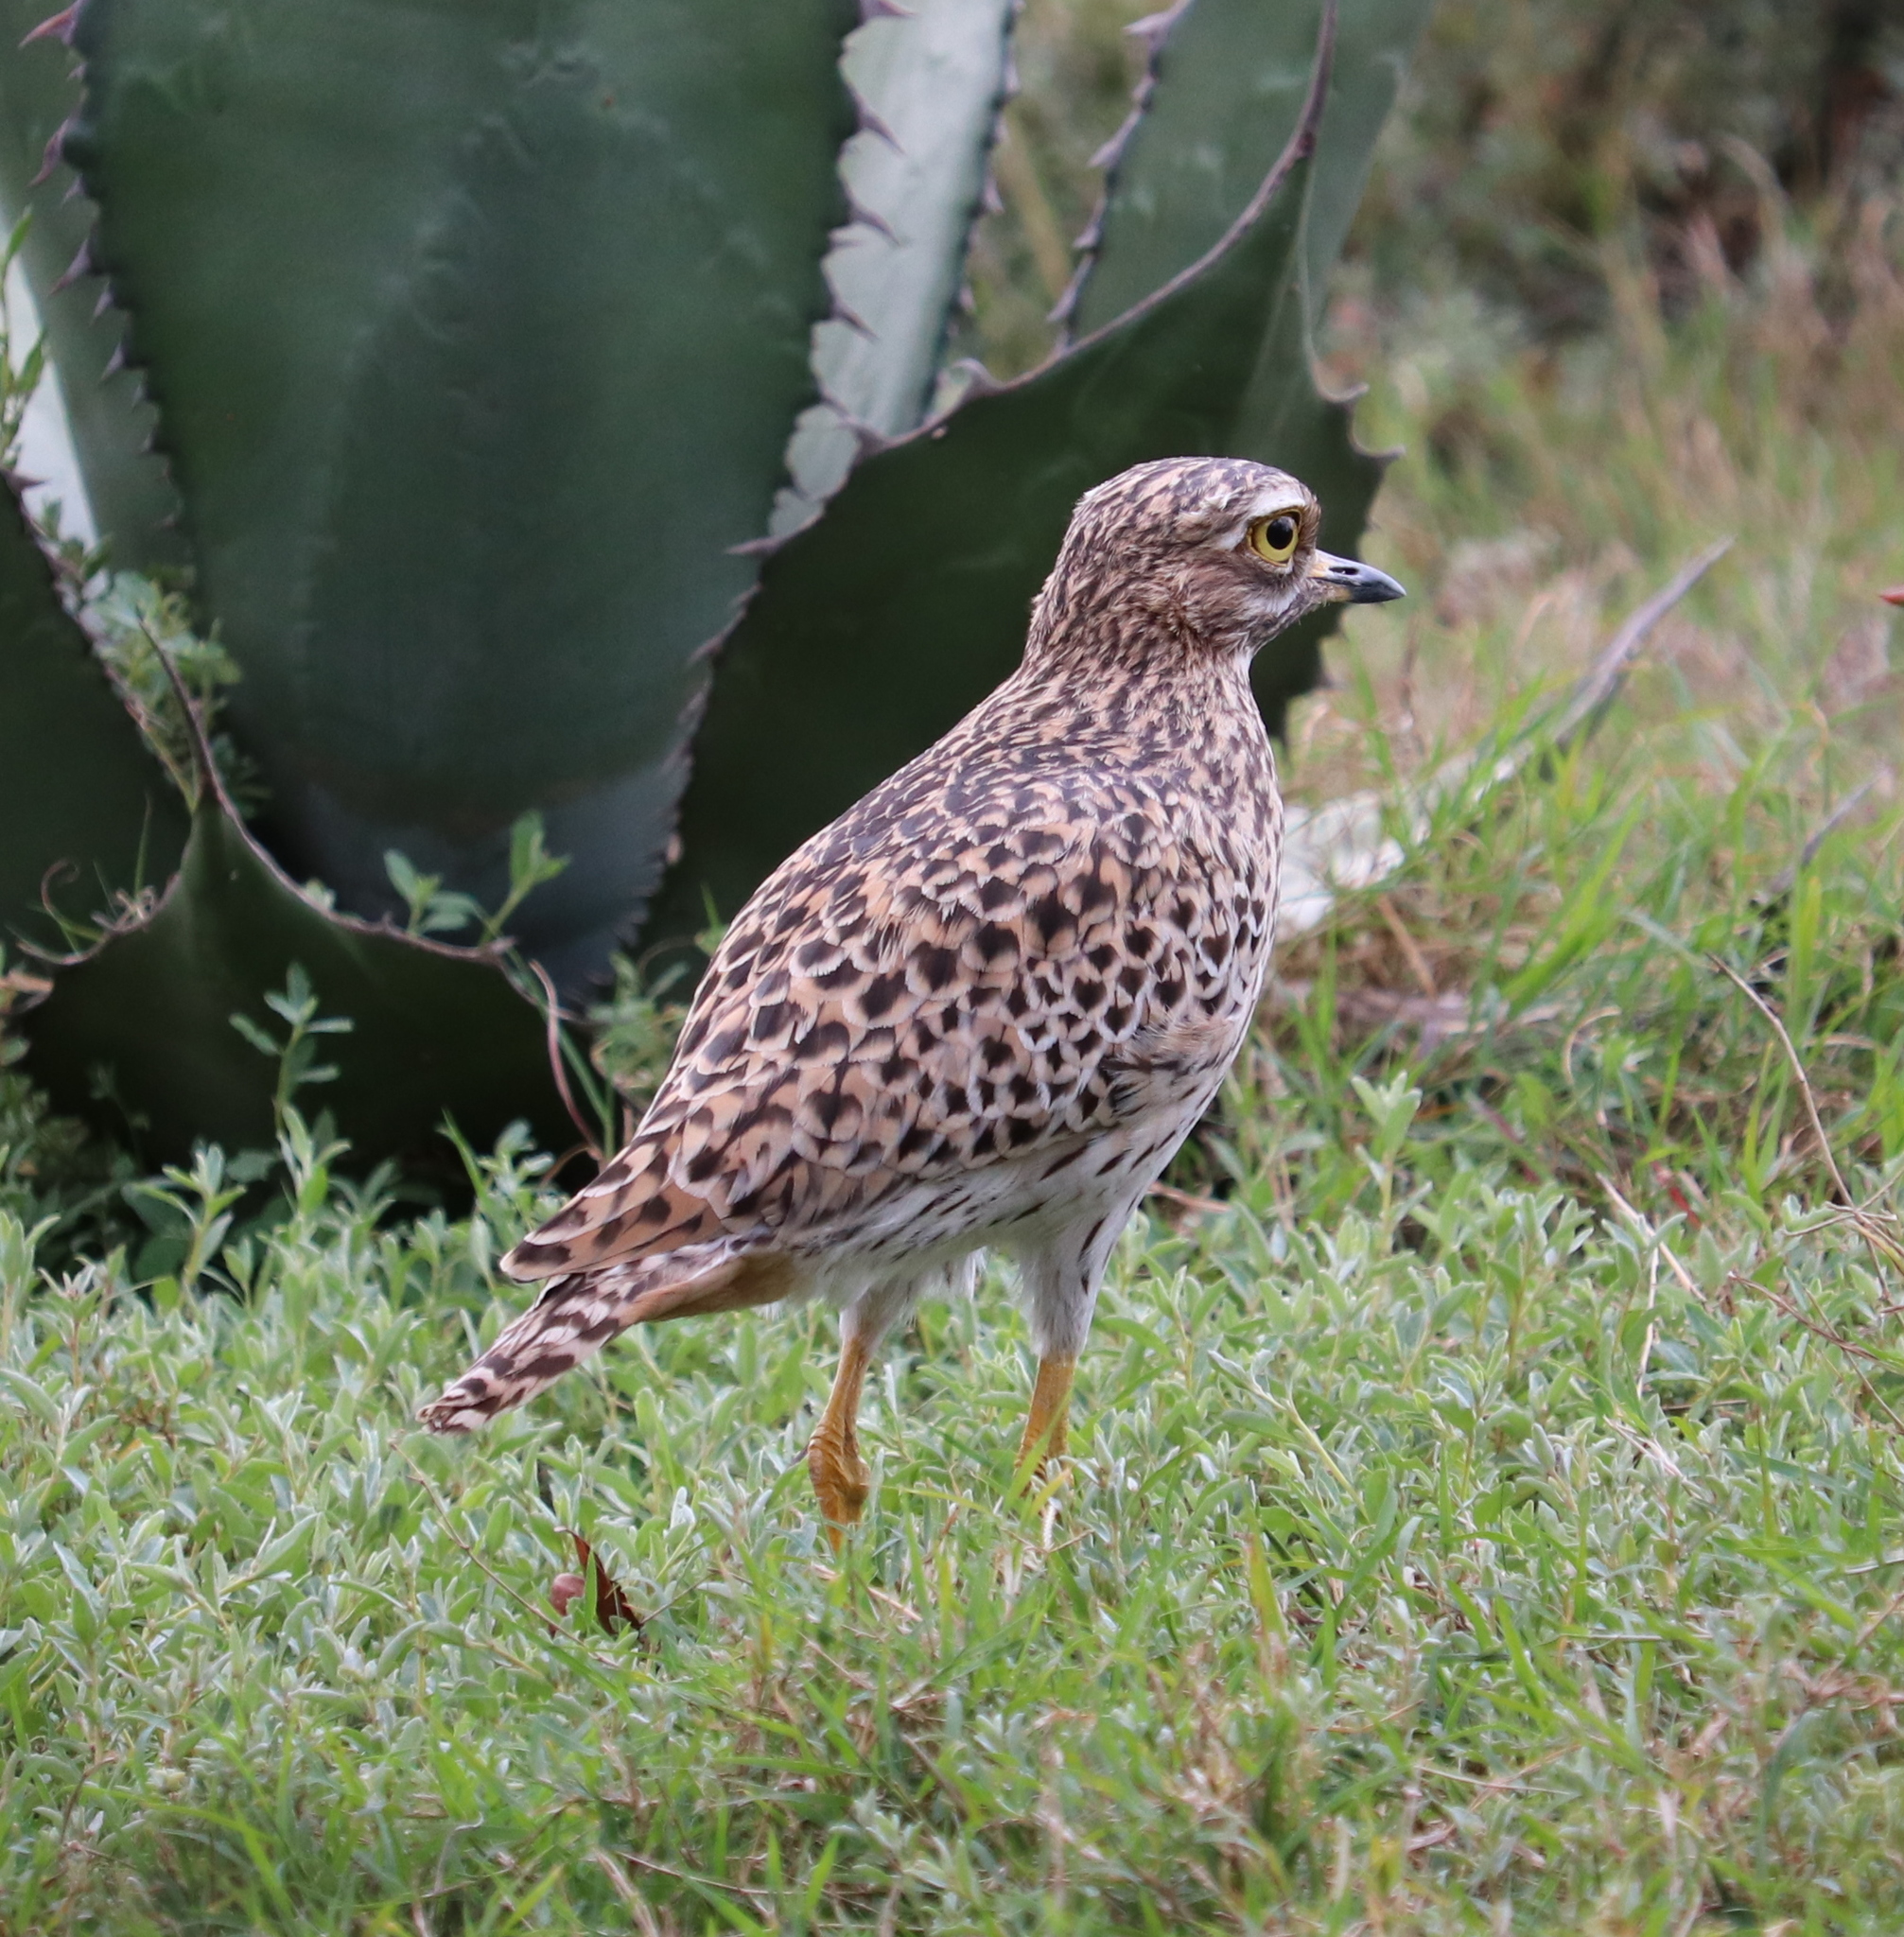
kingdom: Animalia
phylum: Chordata
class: Aves
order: Charadriiformes
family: Burhinidae
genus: Burhinus
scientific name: Burhinus capensis
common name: Spotted thick-knee
